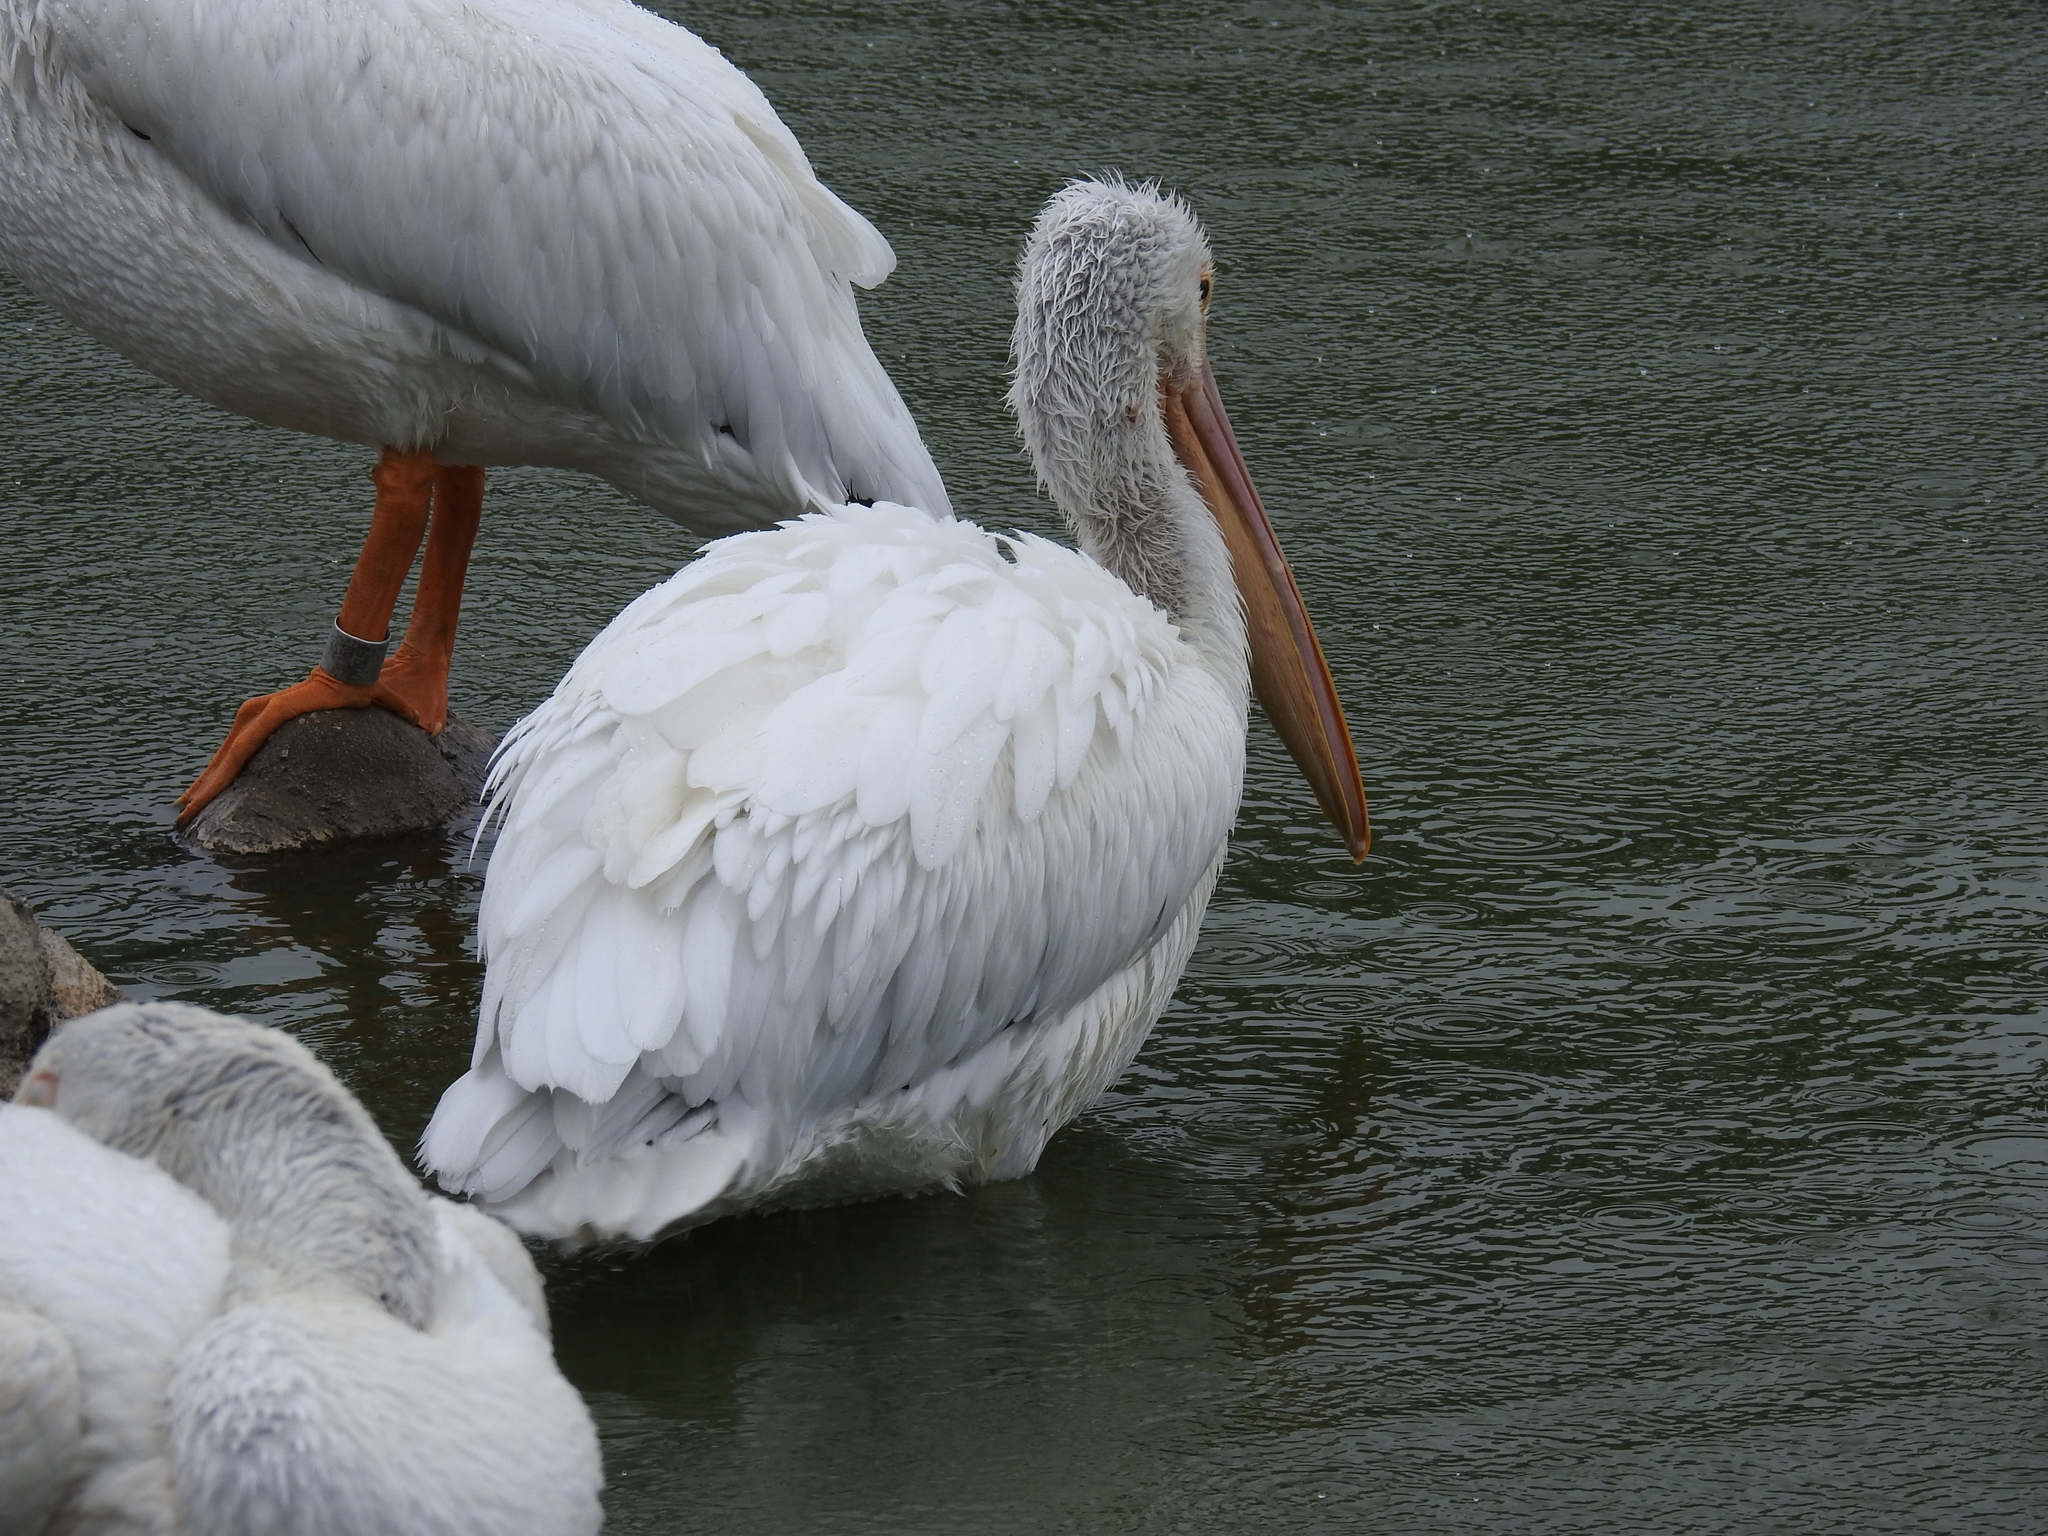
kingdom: Animalia
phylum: Chordata
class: Aves
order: Pelecaniformes
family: Pelecanidae
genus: Pelecanus
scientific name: Pelecanus erythrorhynchos
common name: American white pelican
